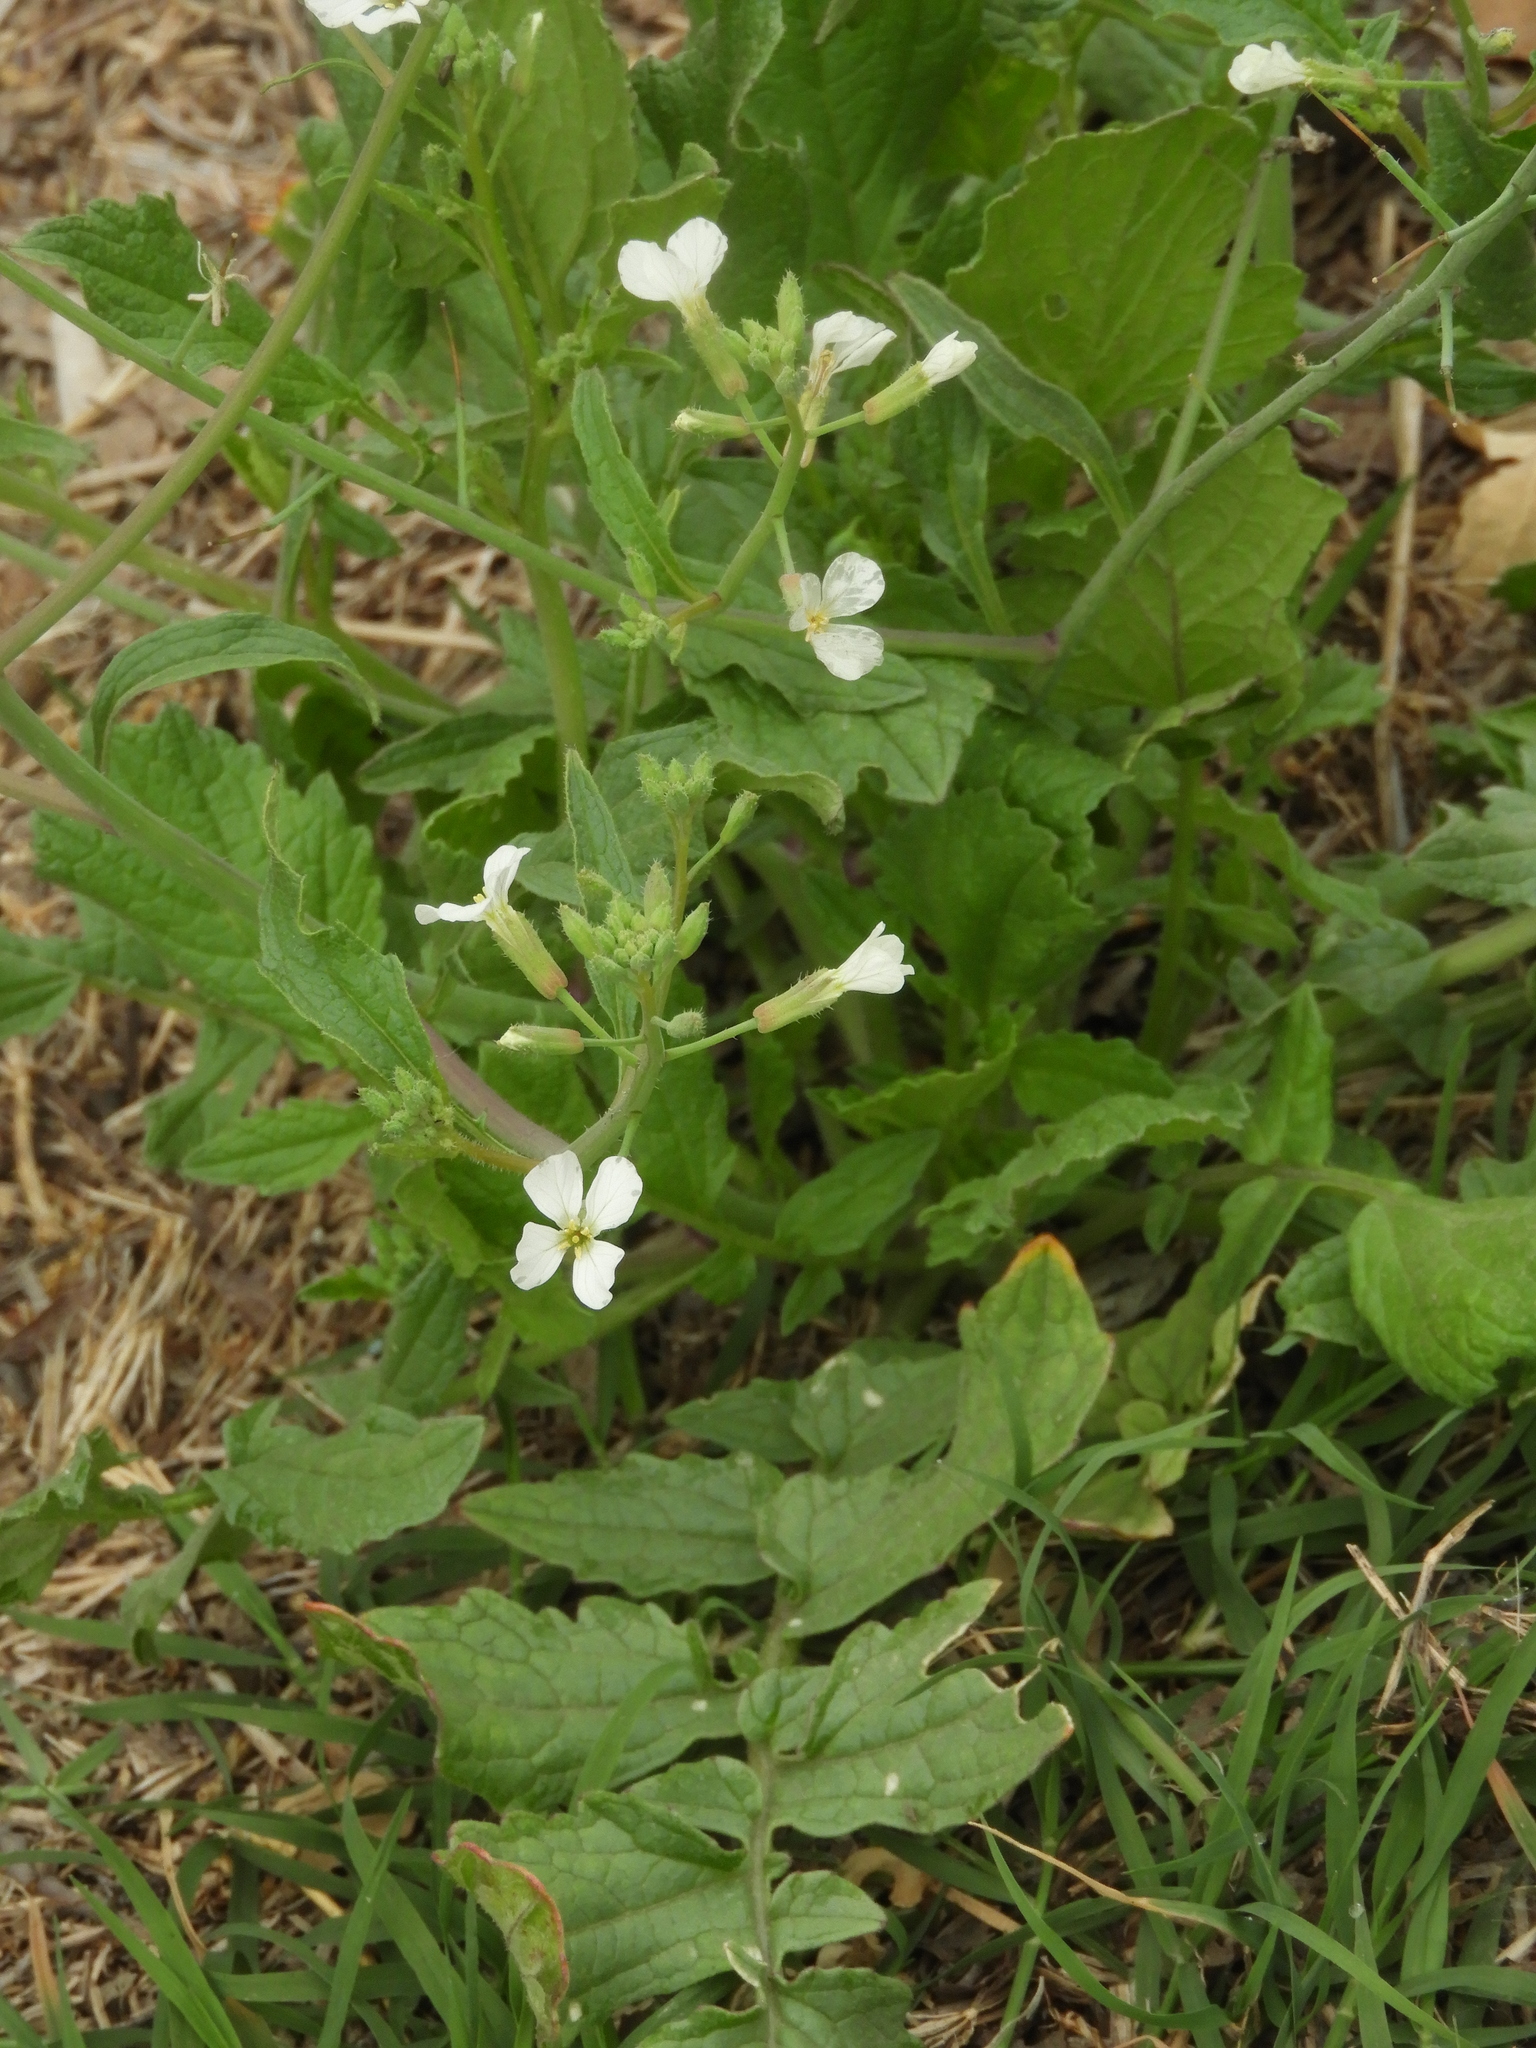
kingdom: Plantae
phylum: Tracheophyta
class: Magnoliopsida
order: Brassicales
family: Brassicaceae
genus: Raphanus
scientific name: Raphanus raphanistrum
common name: Wild radish
